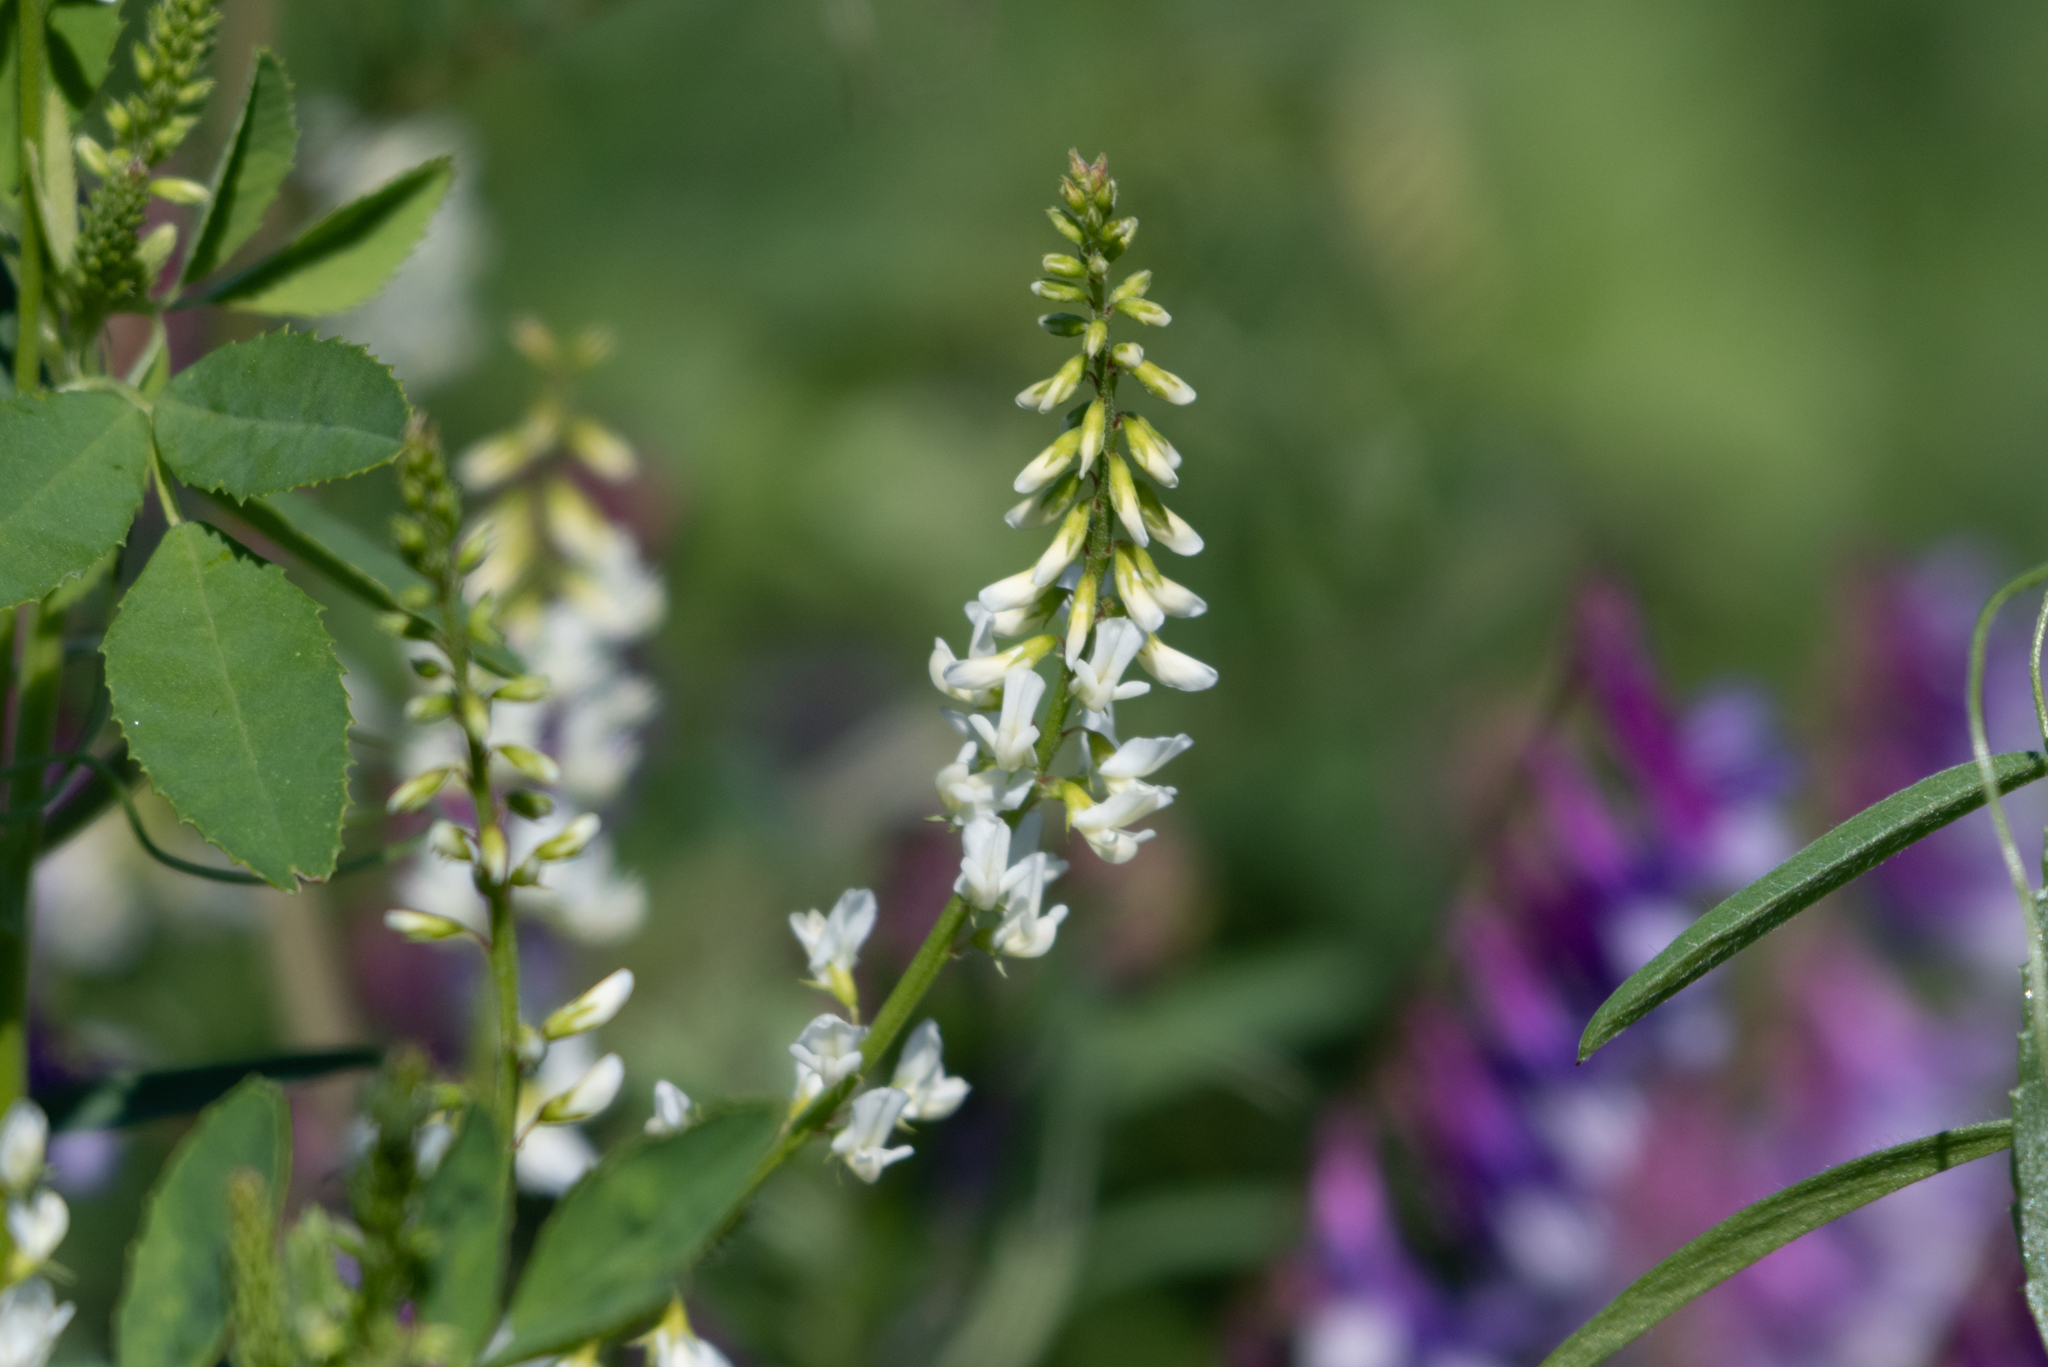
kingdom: Plantae
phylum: Tracheophyta
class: Magnoliopsida
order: Fabales
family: Fabaceae
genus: Melilotus
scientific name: Melilotus albus
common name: White melilot
